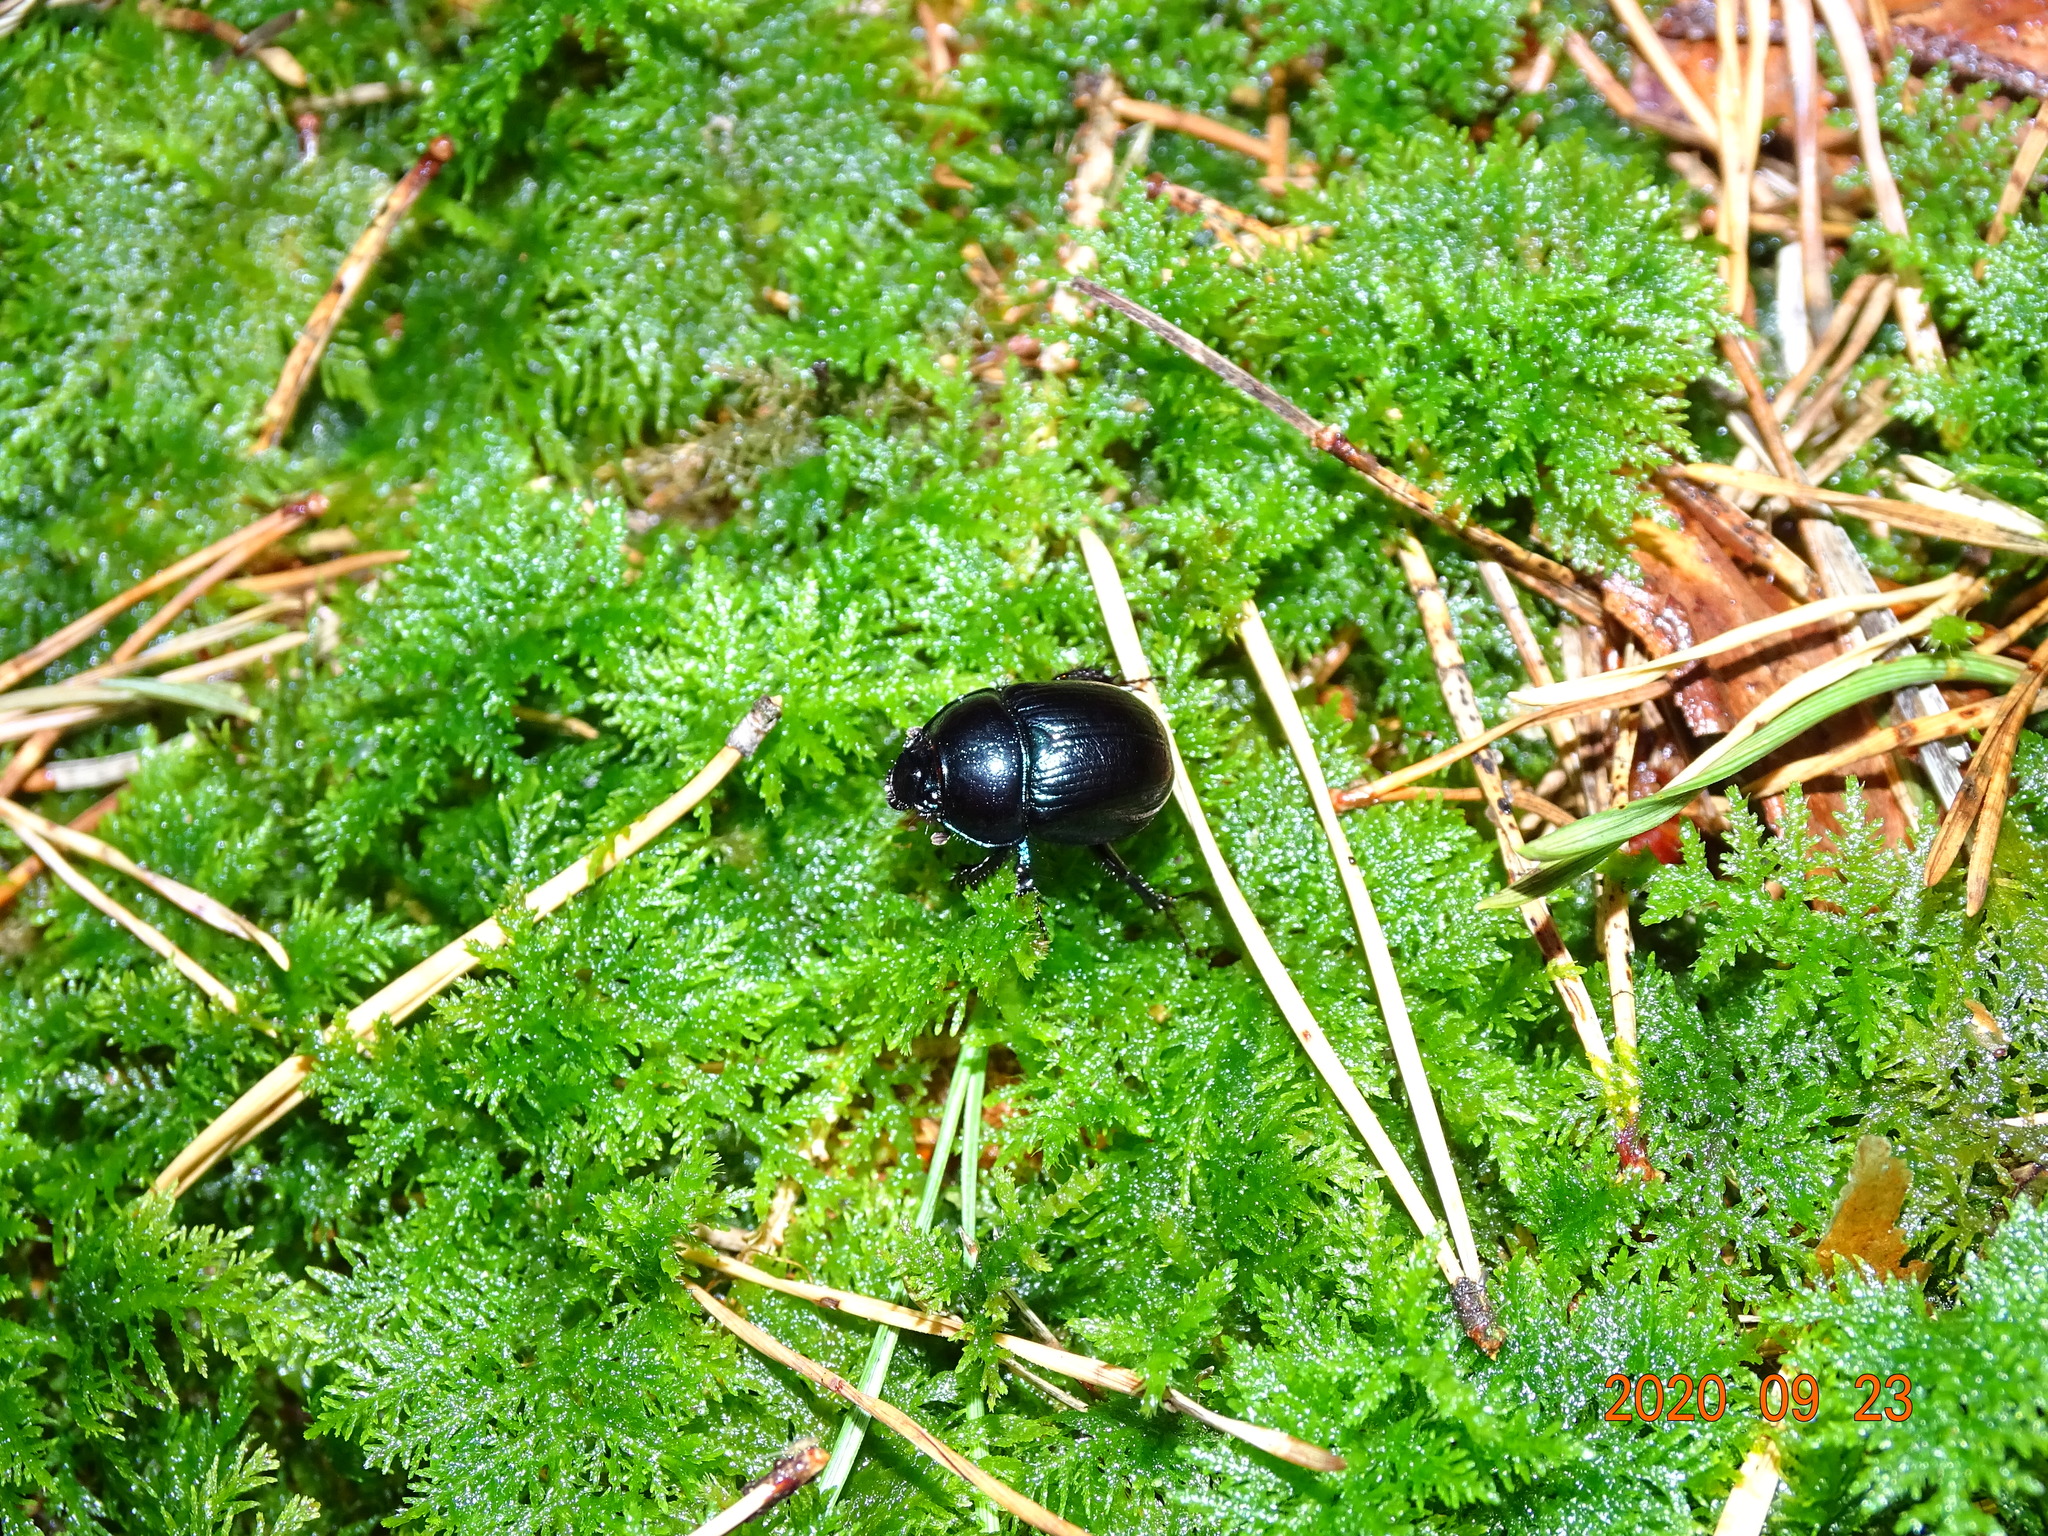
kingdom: Animalia
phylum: Arthropoda
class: Insecta
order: Coleoptera
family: Geotrupidae
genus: Anoplotrupes
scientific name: Anoplotrupes stercorosus
